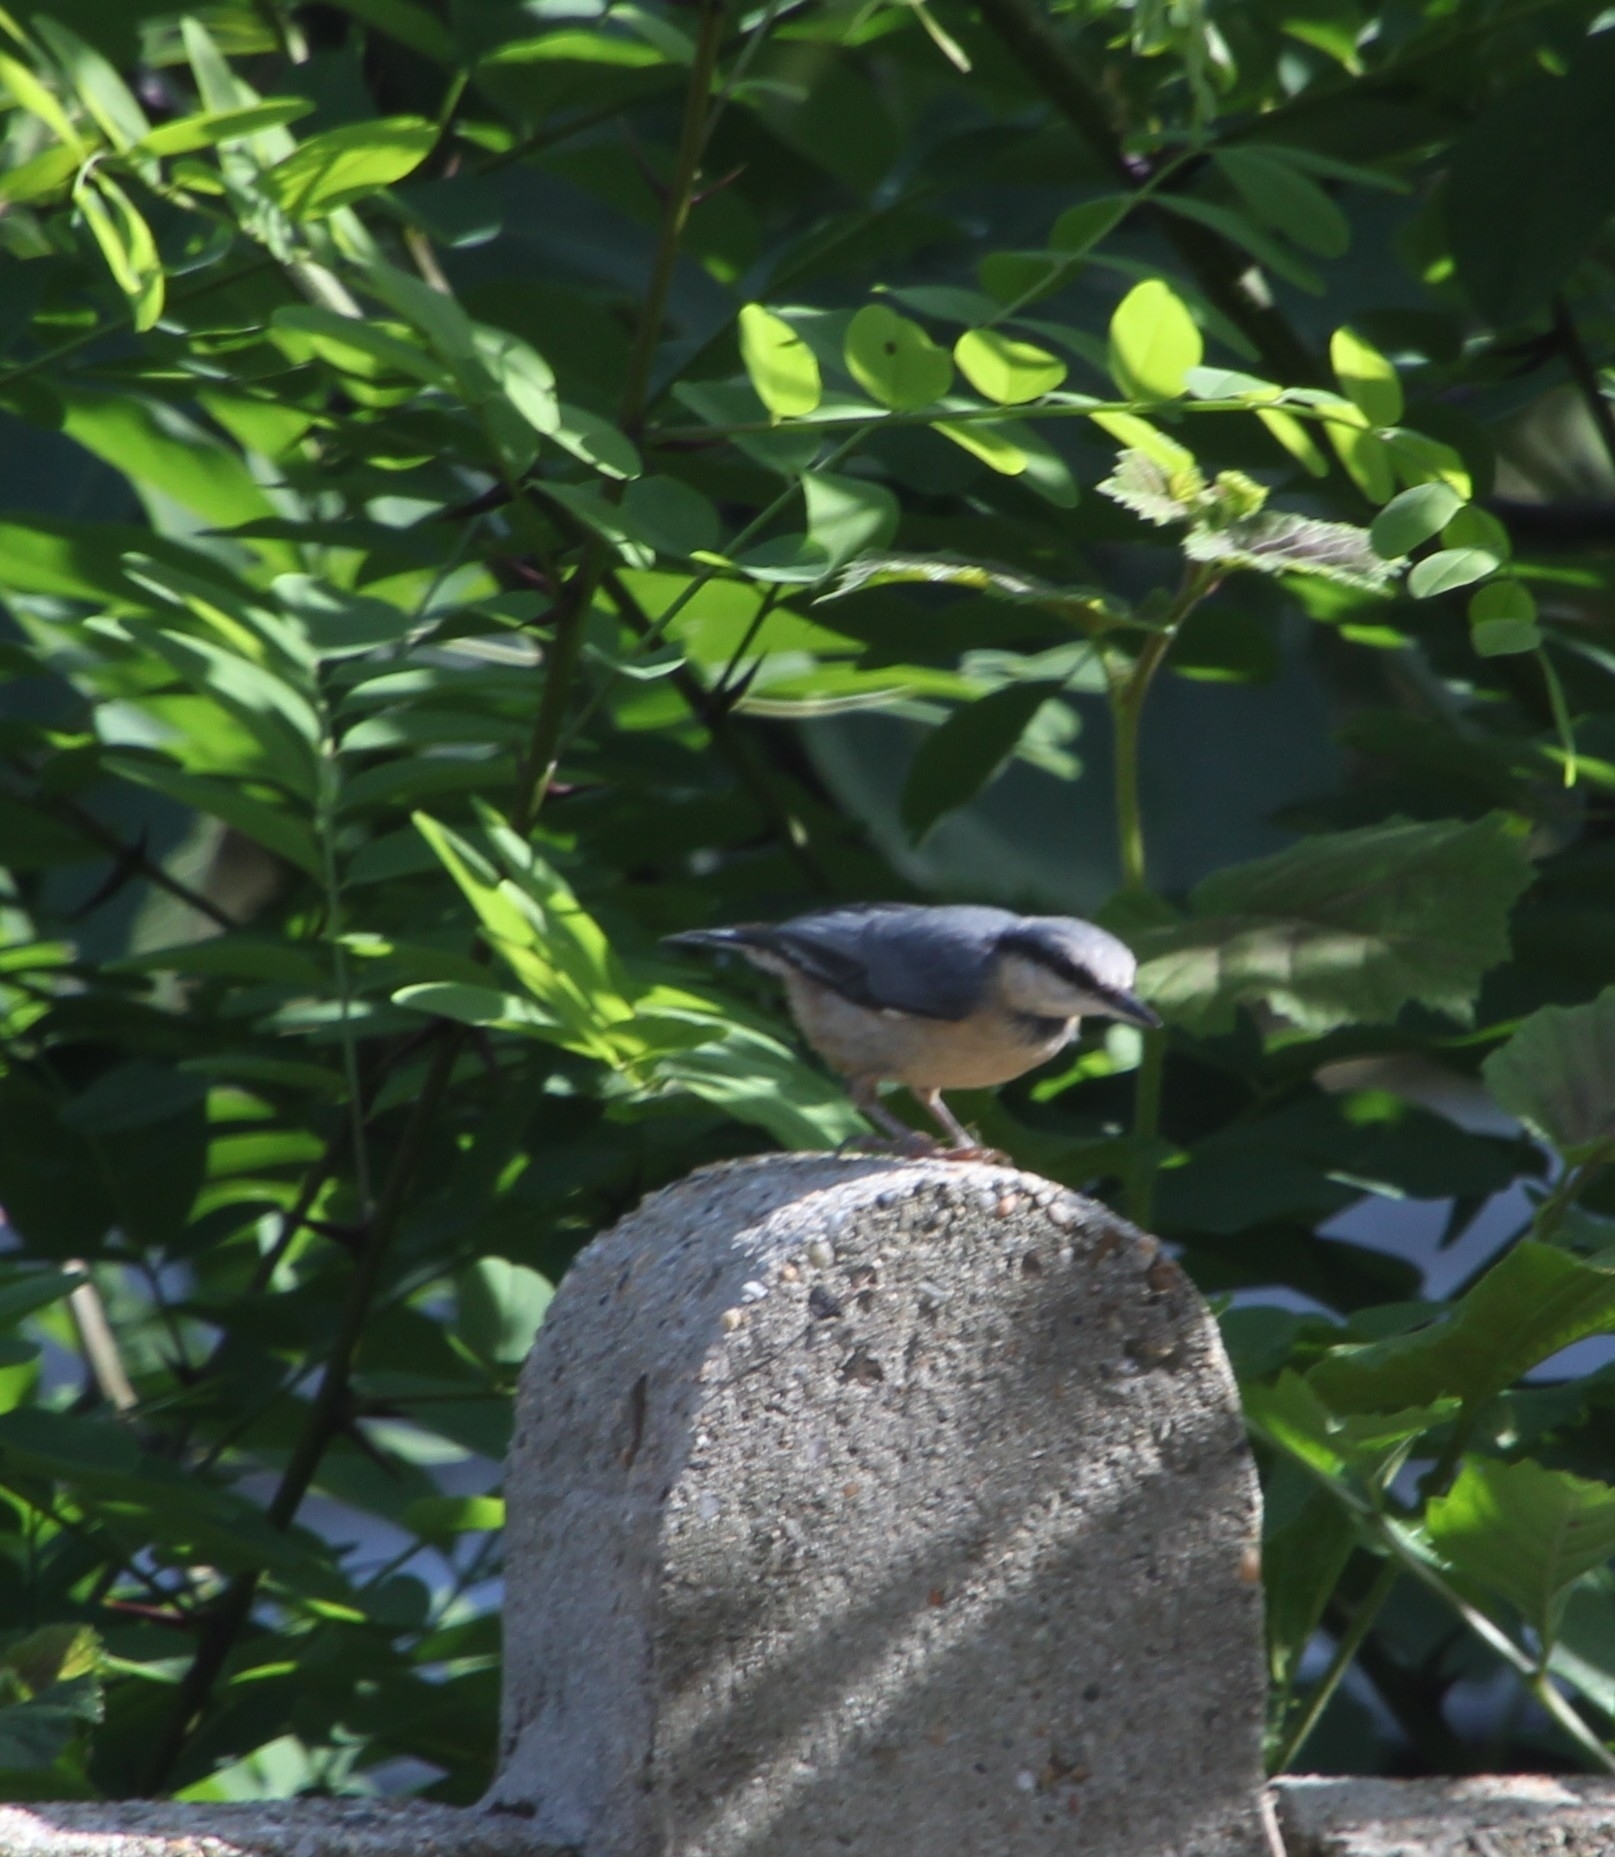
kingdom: Animalia
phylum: Chordata
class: Aves
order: Passeriformes
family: Sittidae
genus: Sitta
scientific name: Sitta europaea
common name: Eurasian nuthatch
